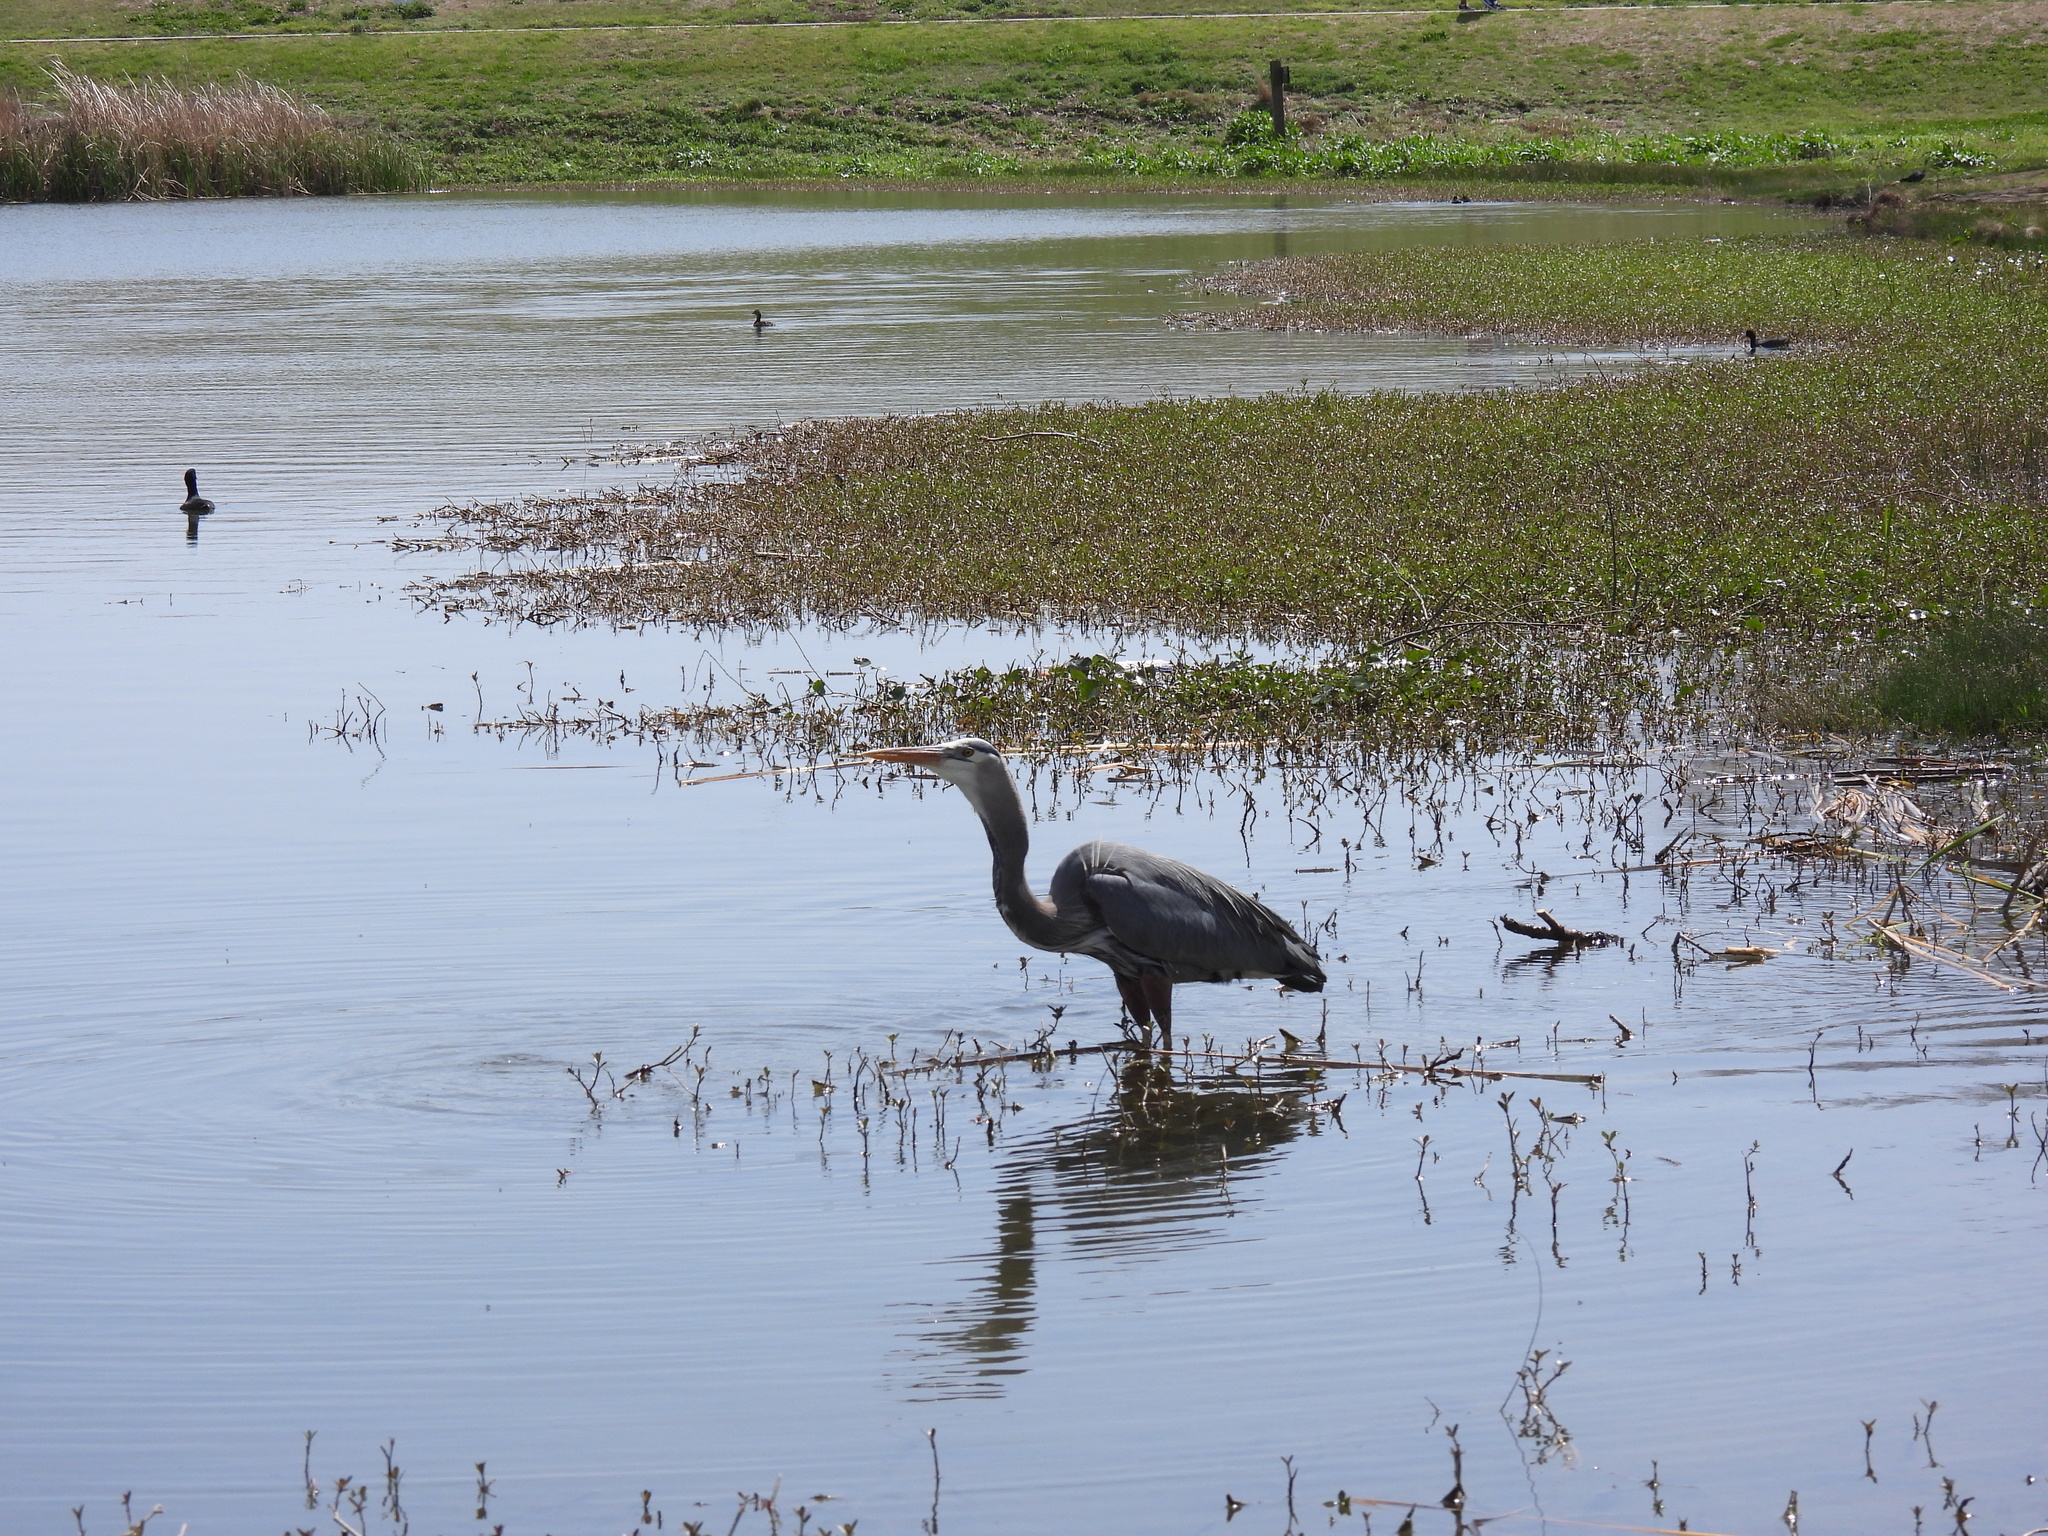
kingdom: Animalia
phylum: Chordata
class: Aves
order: Pelecaniformes
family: Ardeidae
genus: Ardea
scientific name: Ardea herodias
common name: Great blue heron
